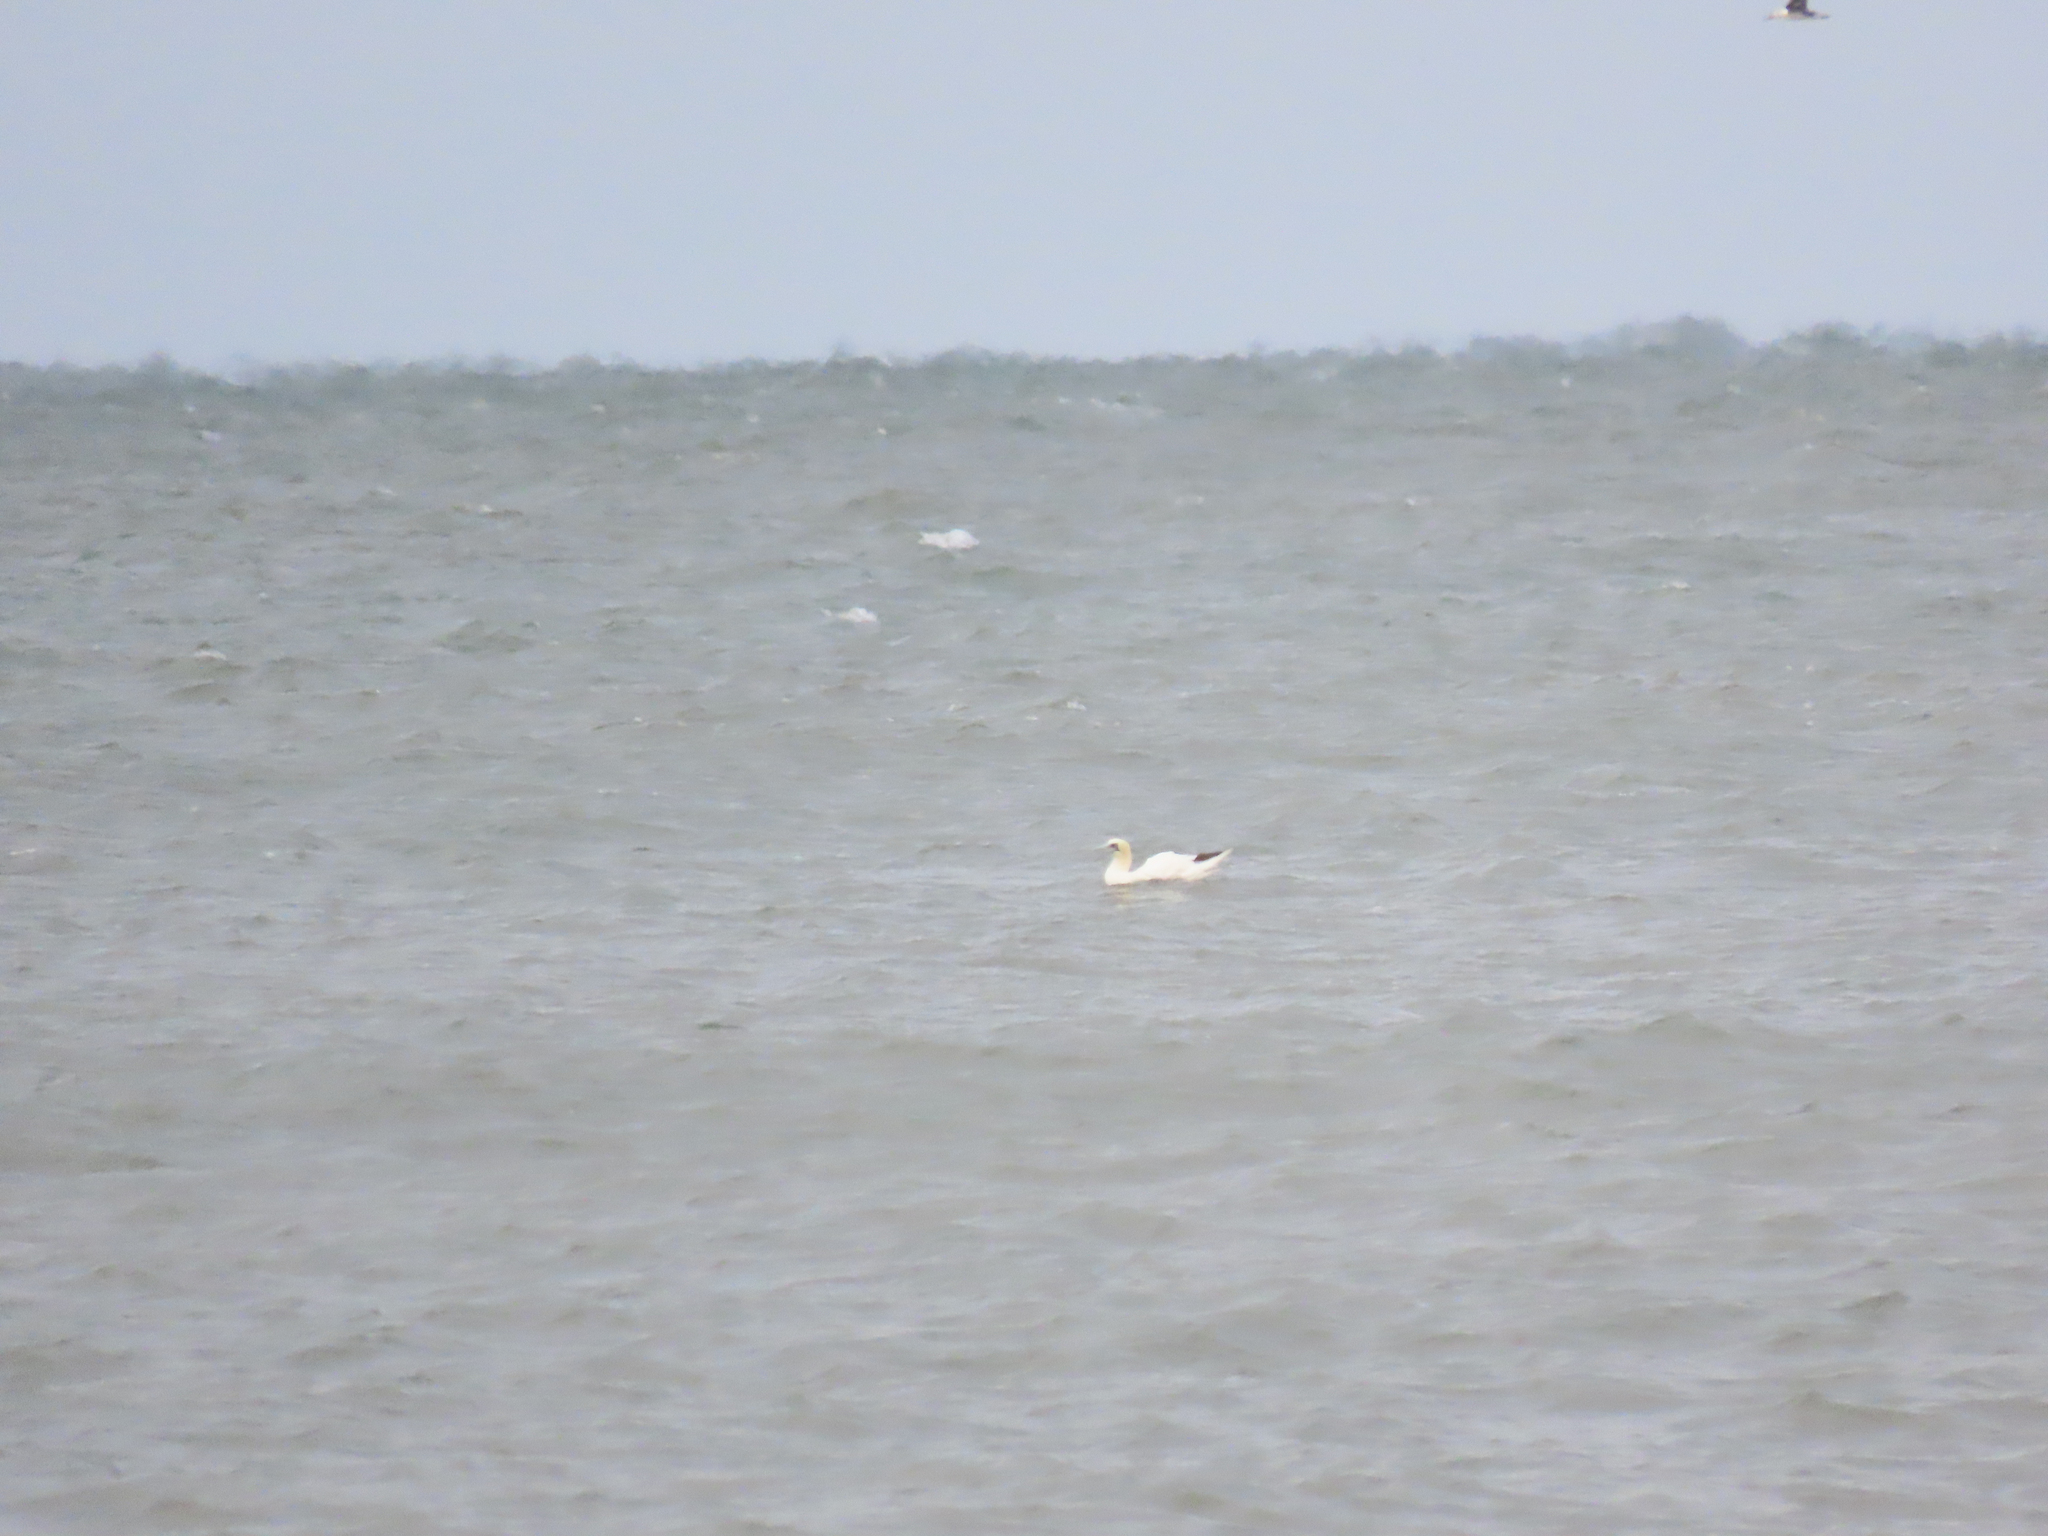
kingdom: Animalia
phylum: Chordata
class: Aves
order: Suliformes
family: Sulidae
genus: Morus
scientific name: Morus bassanus
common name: Northern gannet
